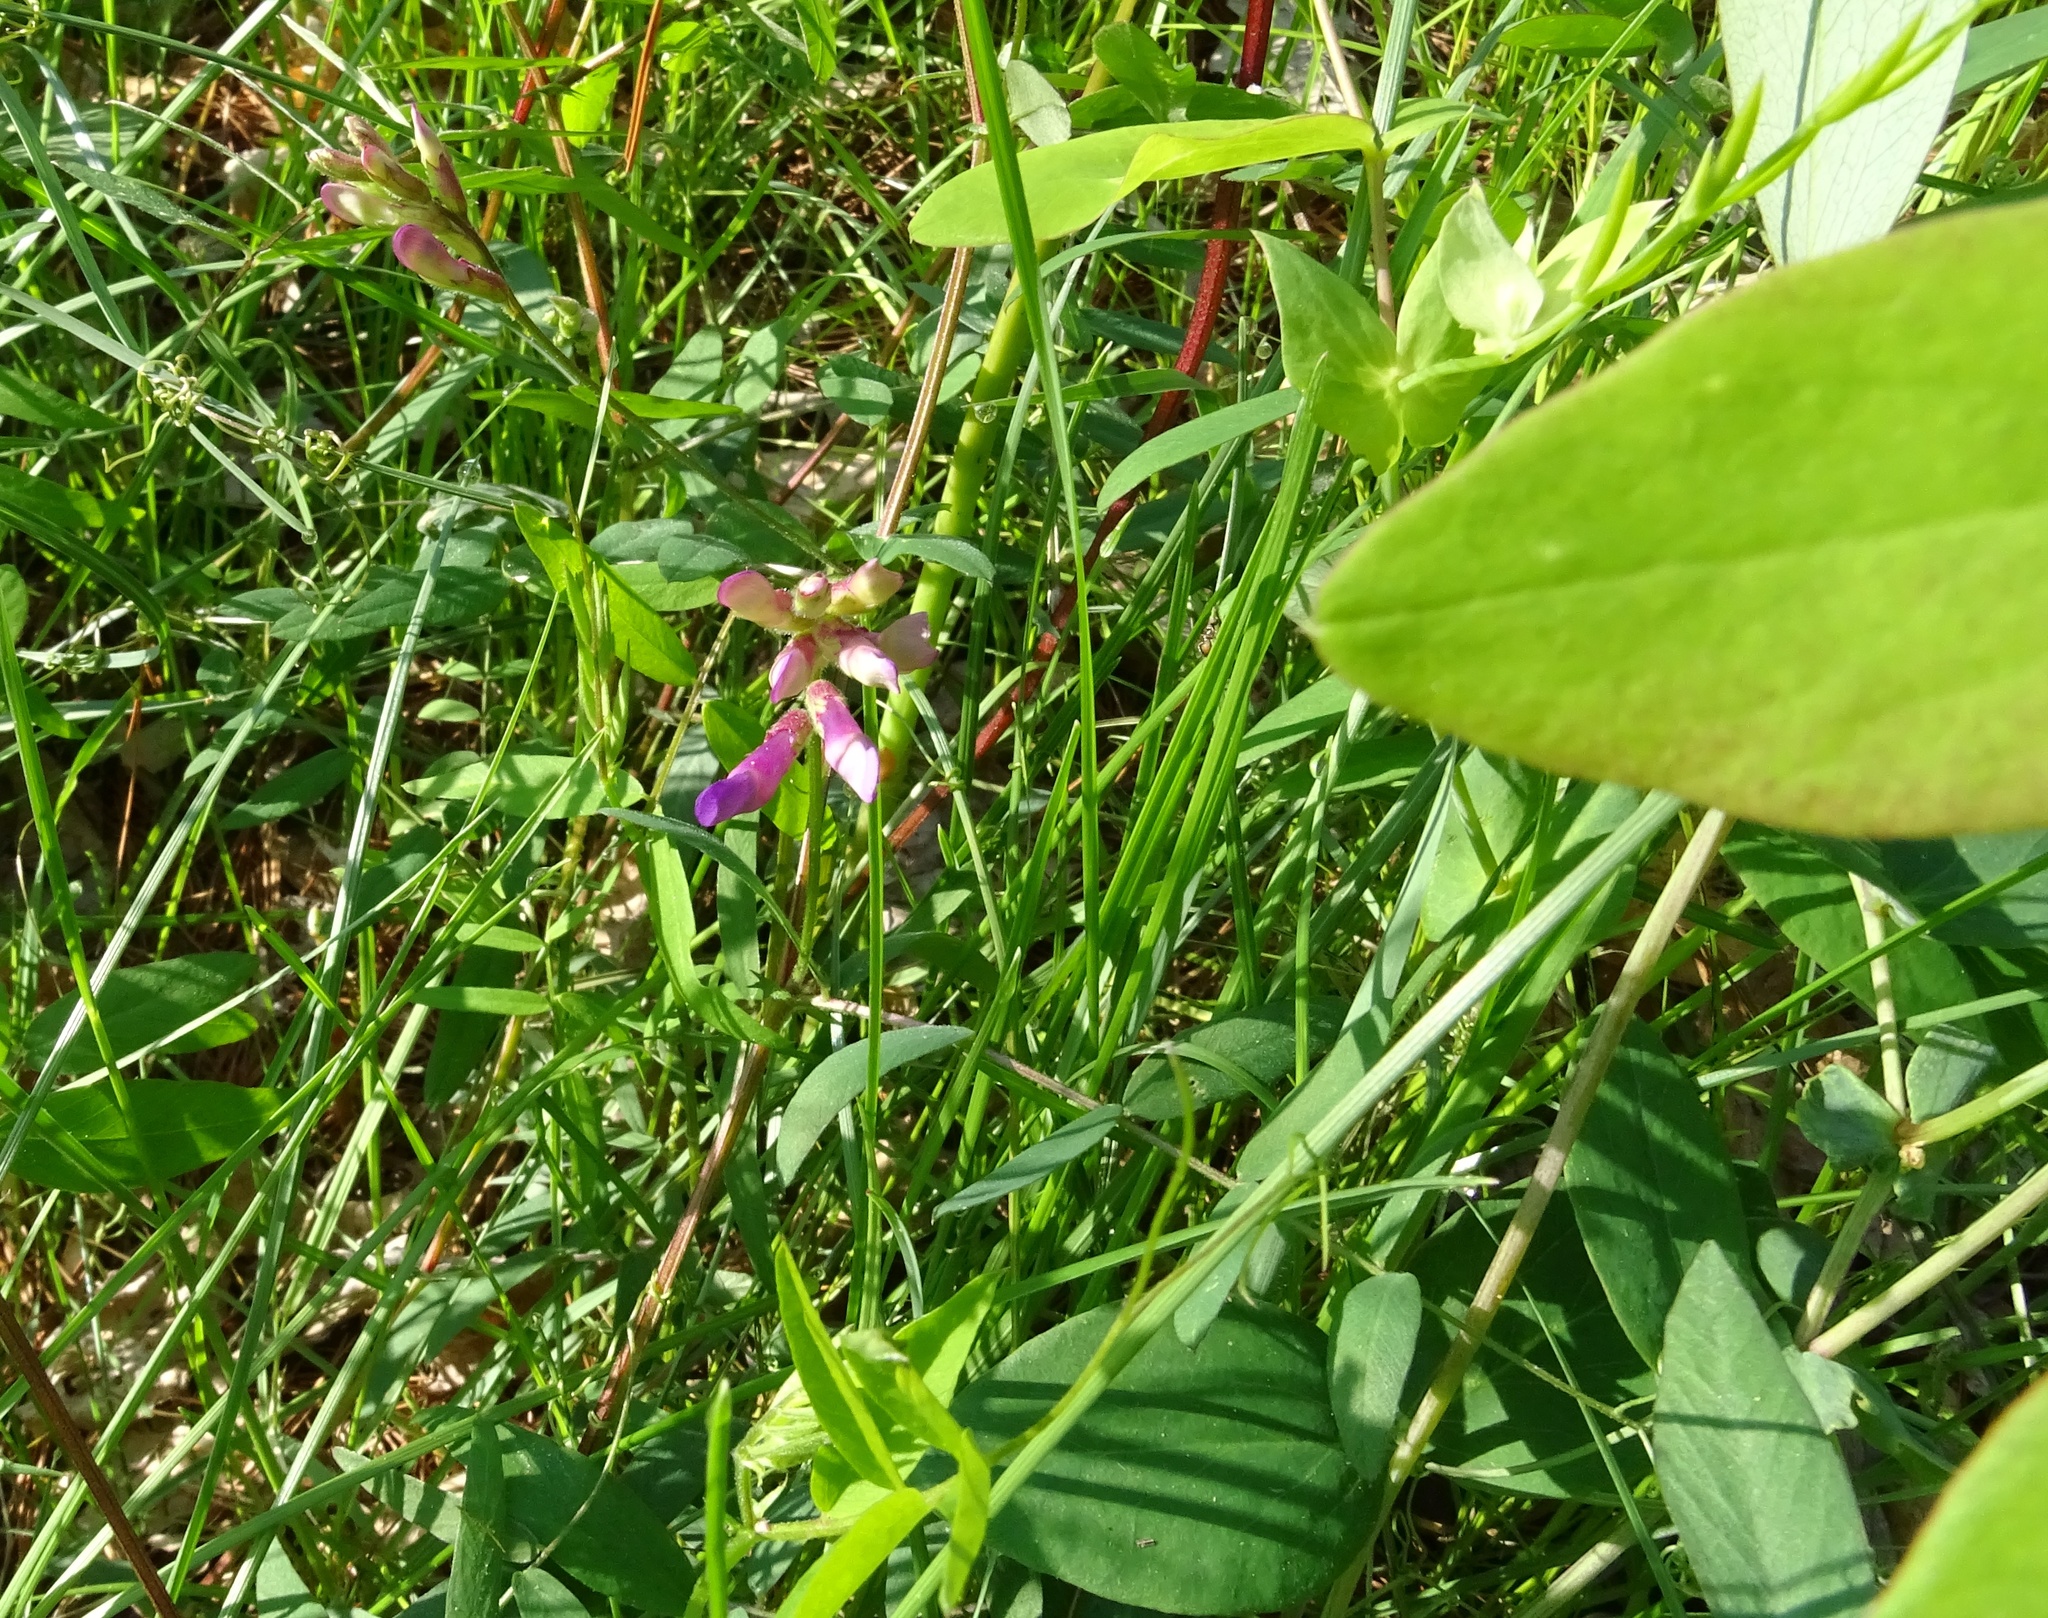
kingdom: Plantae
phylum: Tracheophyta
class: Magnoliopsida
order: Fabales
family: Fabaceae
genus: Vicia
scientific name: Vicia americana
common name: American vetch
